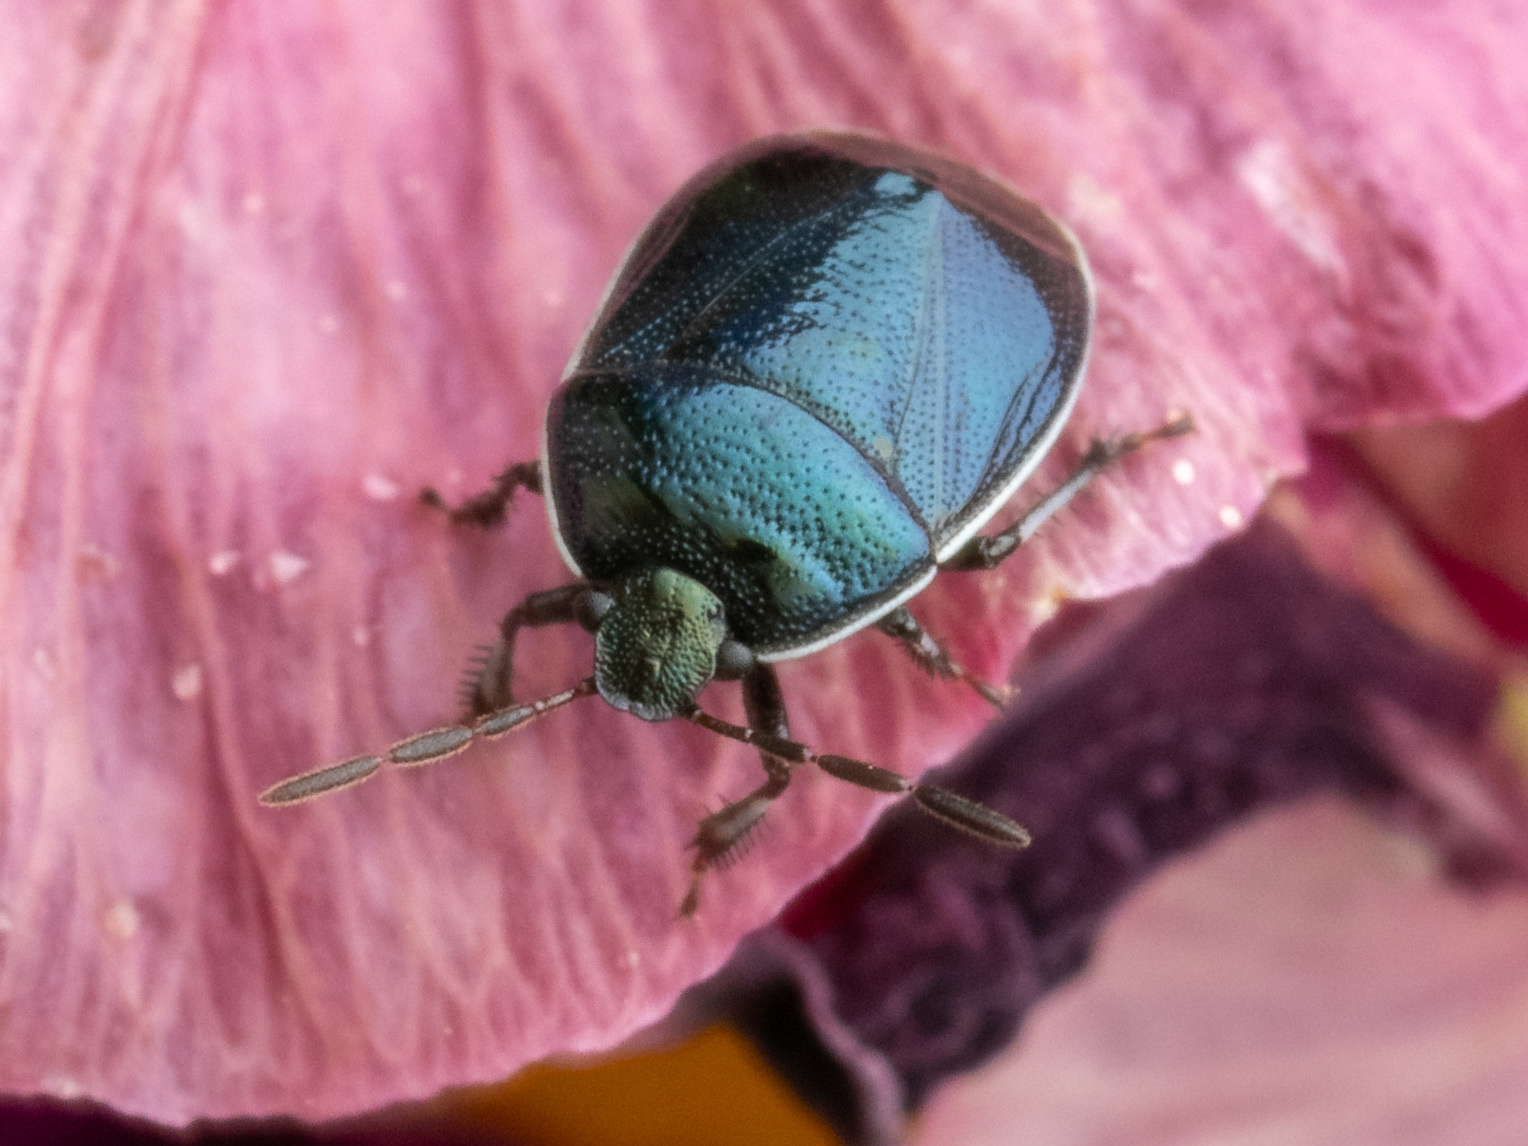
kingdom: Animalia
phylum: Arthropoda
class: Insecta
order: Hemiptera
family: Cydnidae
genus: Sehirus
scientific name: Sehirus cinctus
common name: White-margined burrower bug
